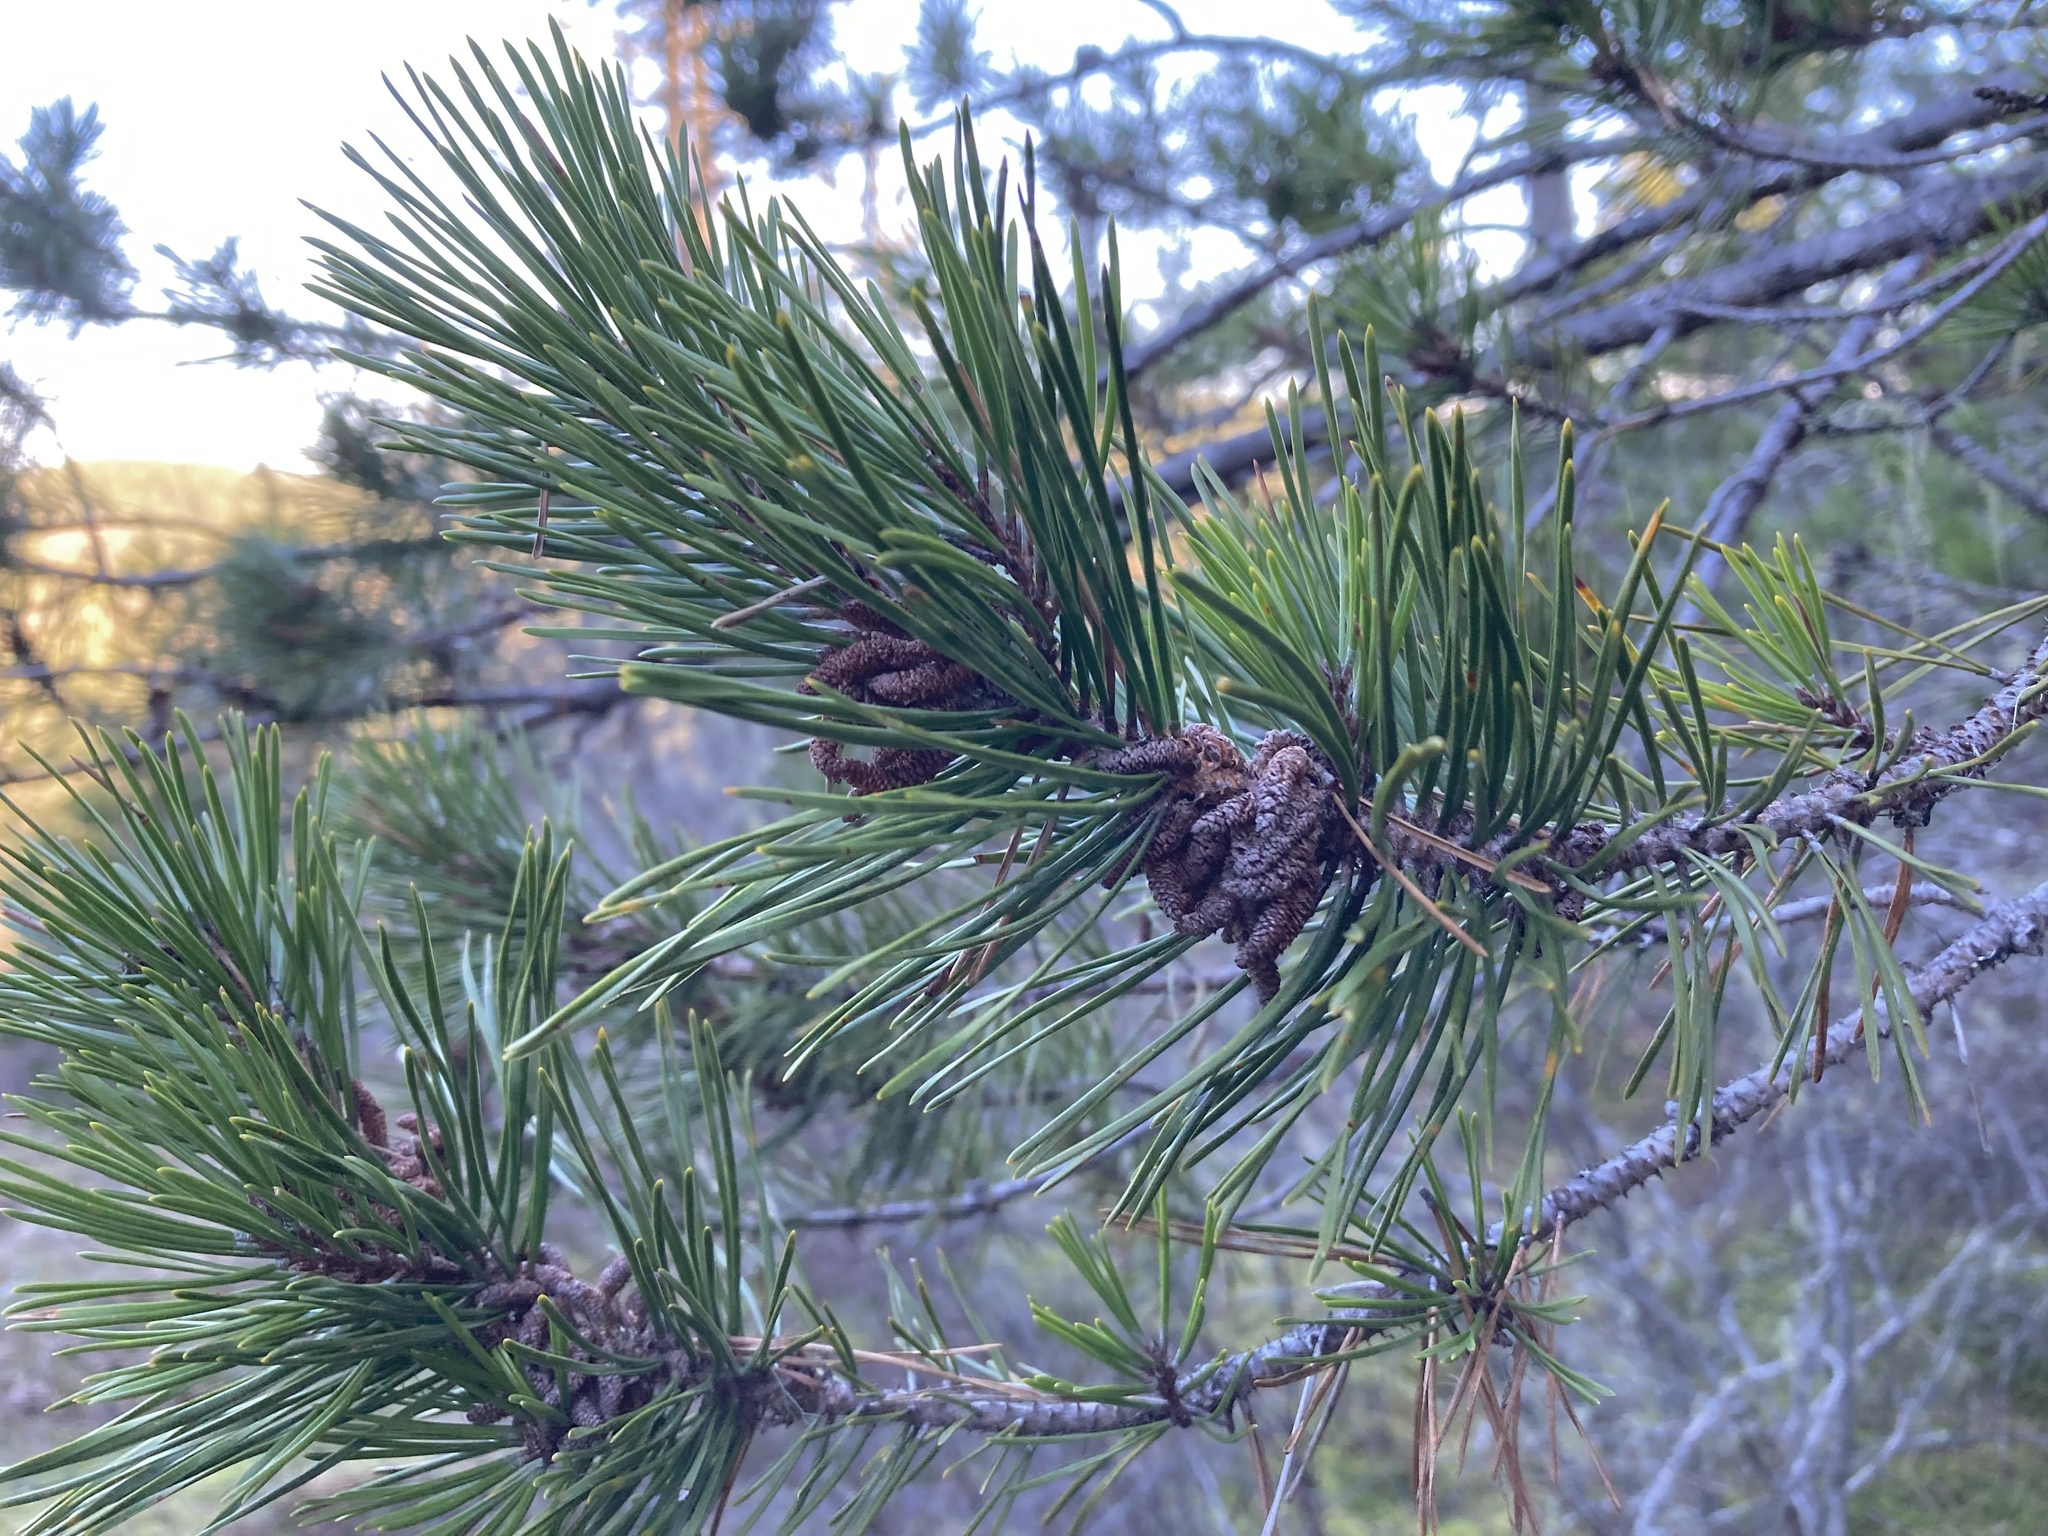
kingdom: Plantae
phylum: Tracheophyta
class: Pinopsida
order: Pinales
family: Pinaceae
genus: Pinus
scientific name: Pinus contorta
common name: Lodgepole pine
